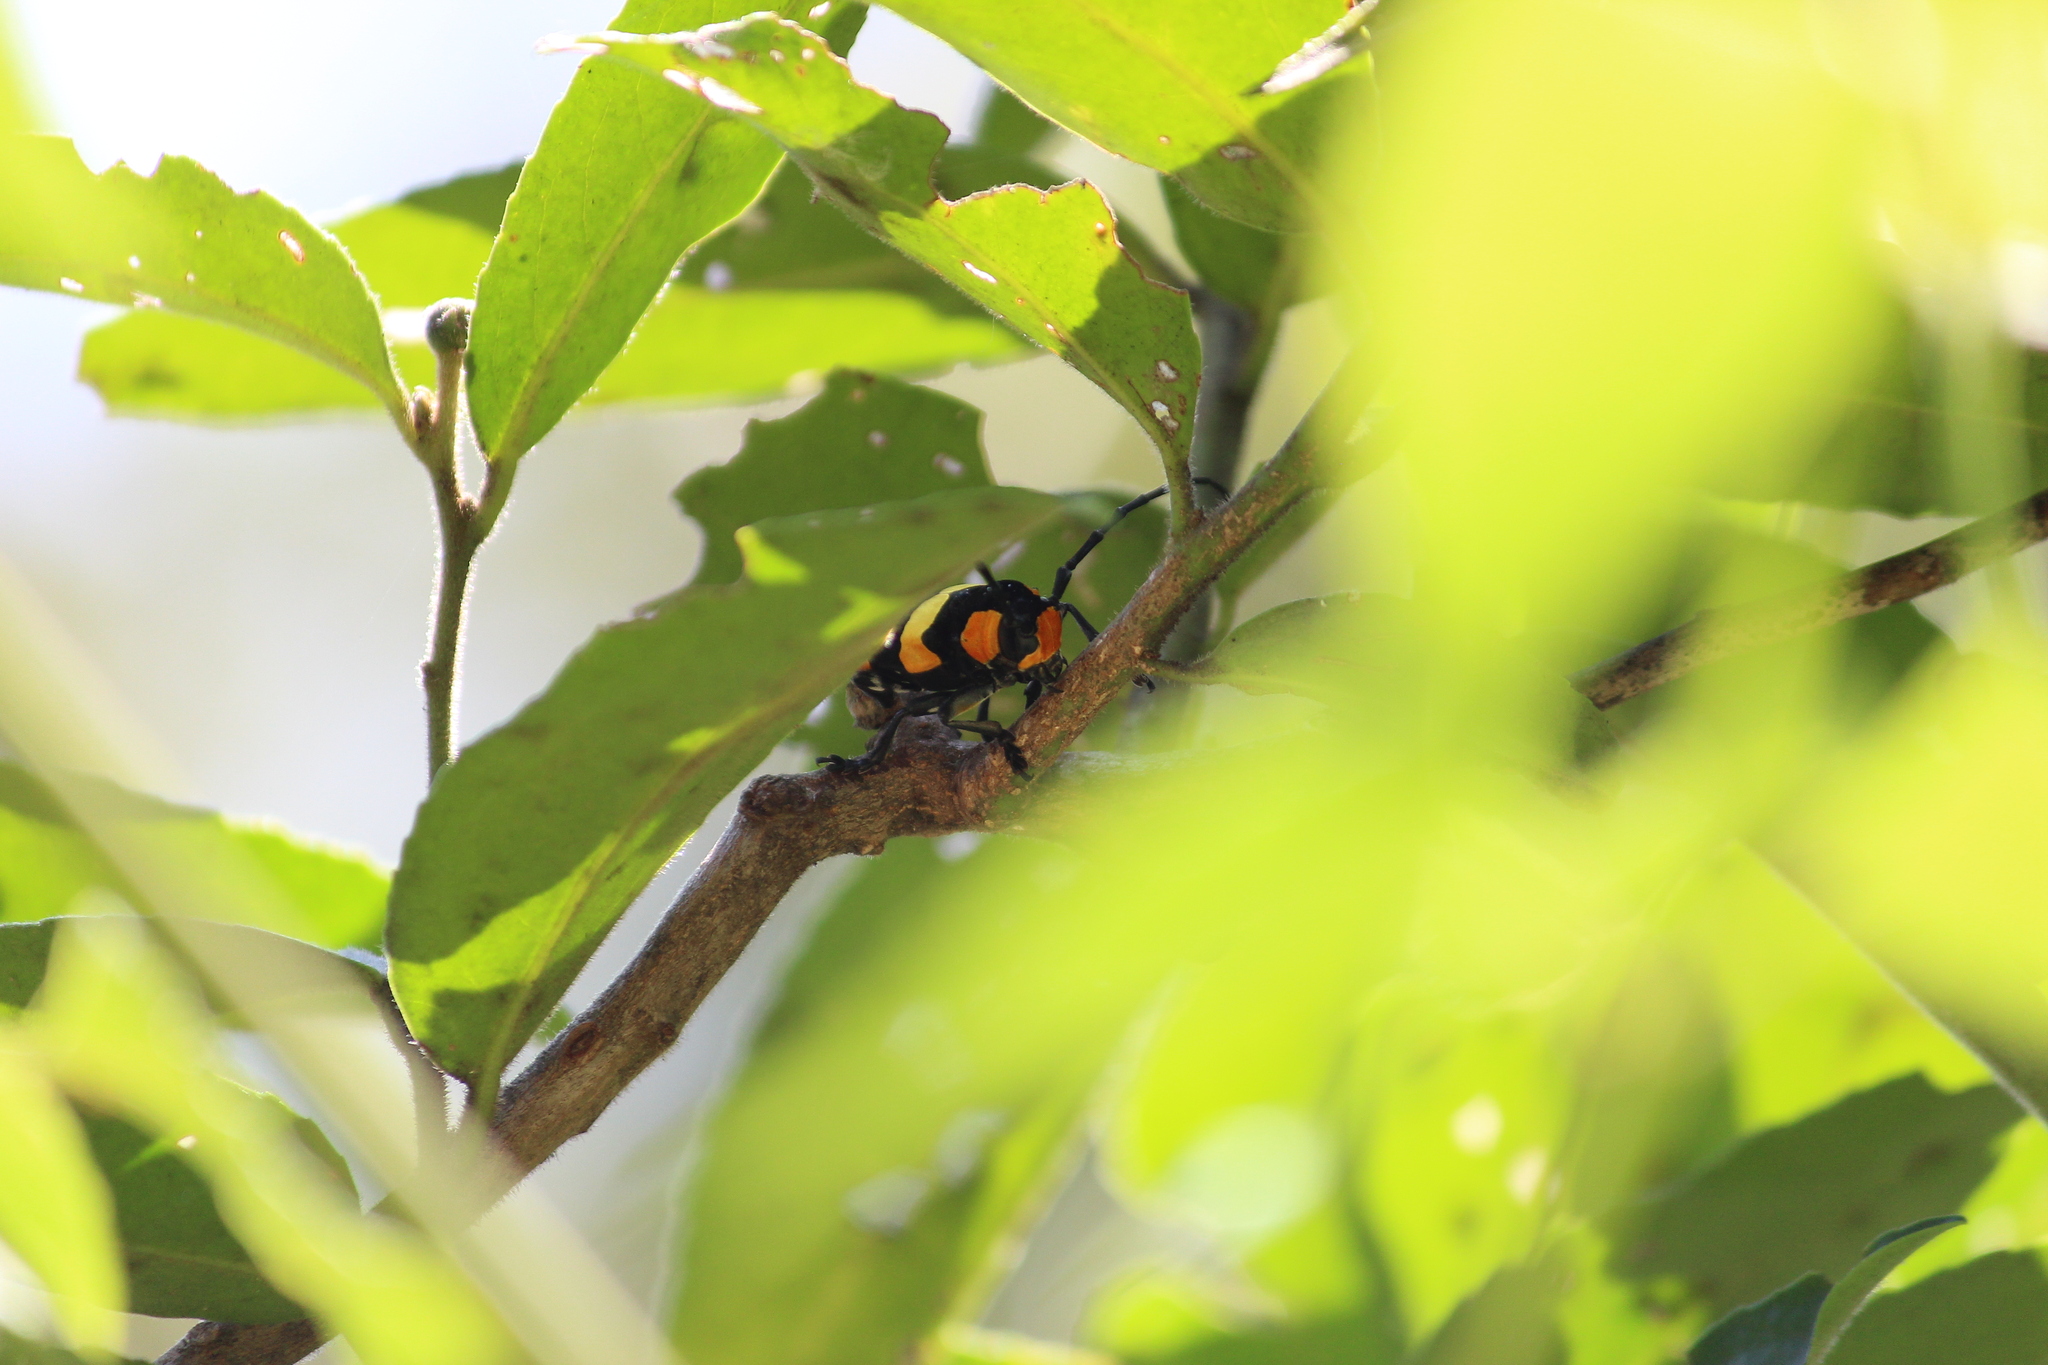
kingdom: Animalia
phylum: Arthropoda
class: Insecta
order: Coleoptera
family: Cerambycidae
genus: Tragocephala
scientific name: Tragocephala formosa
